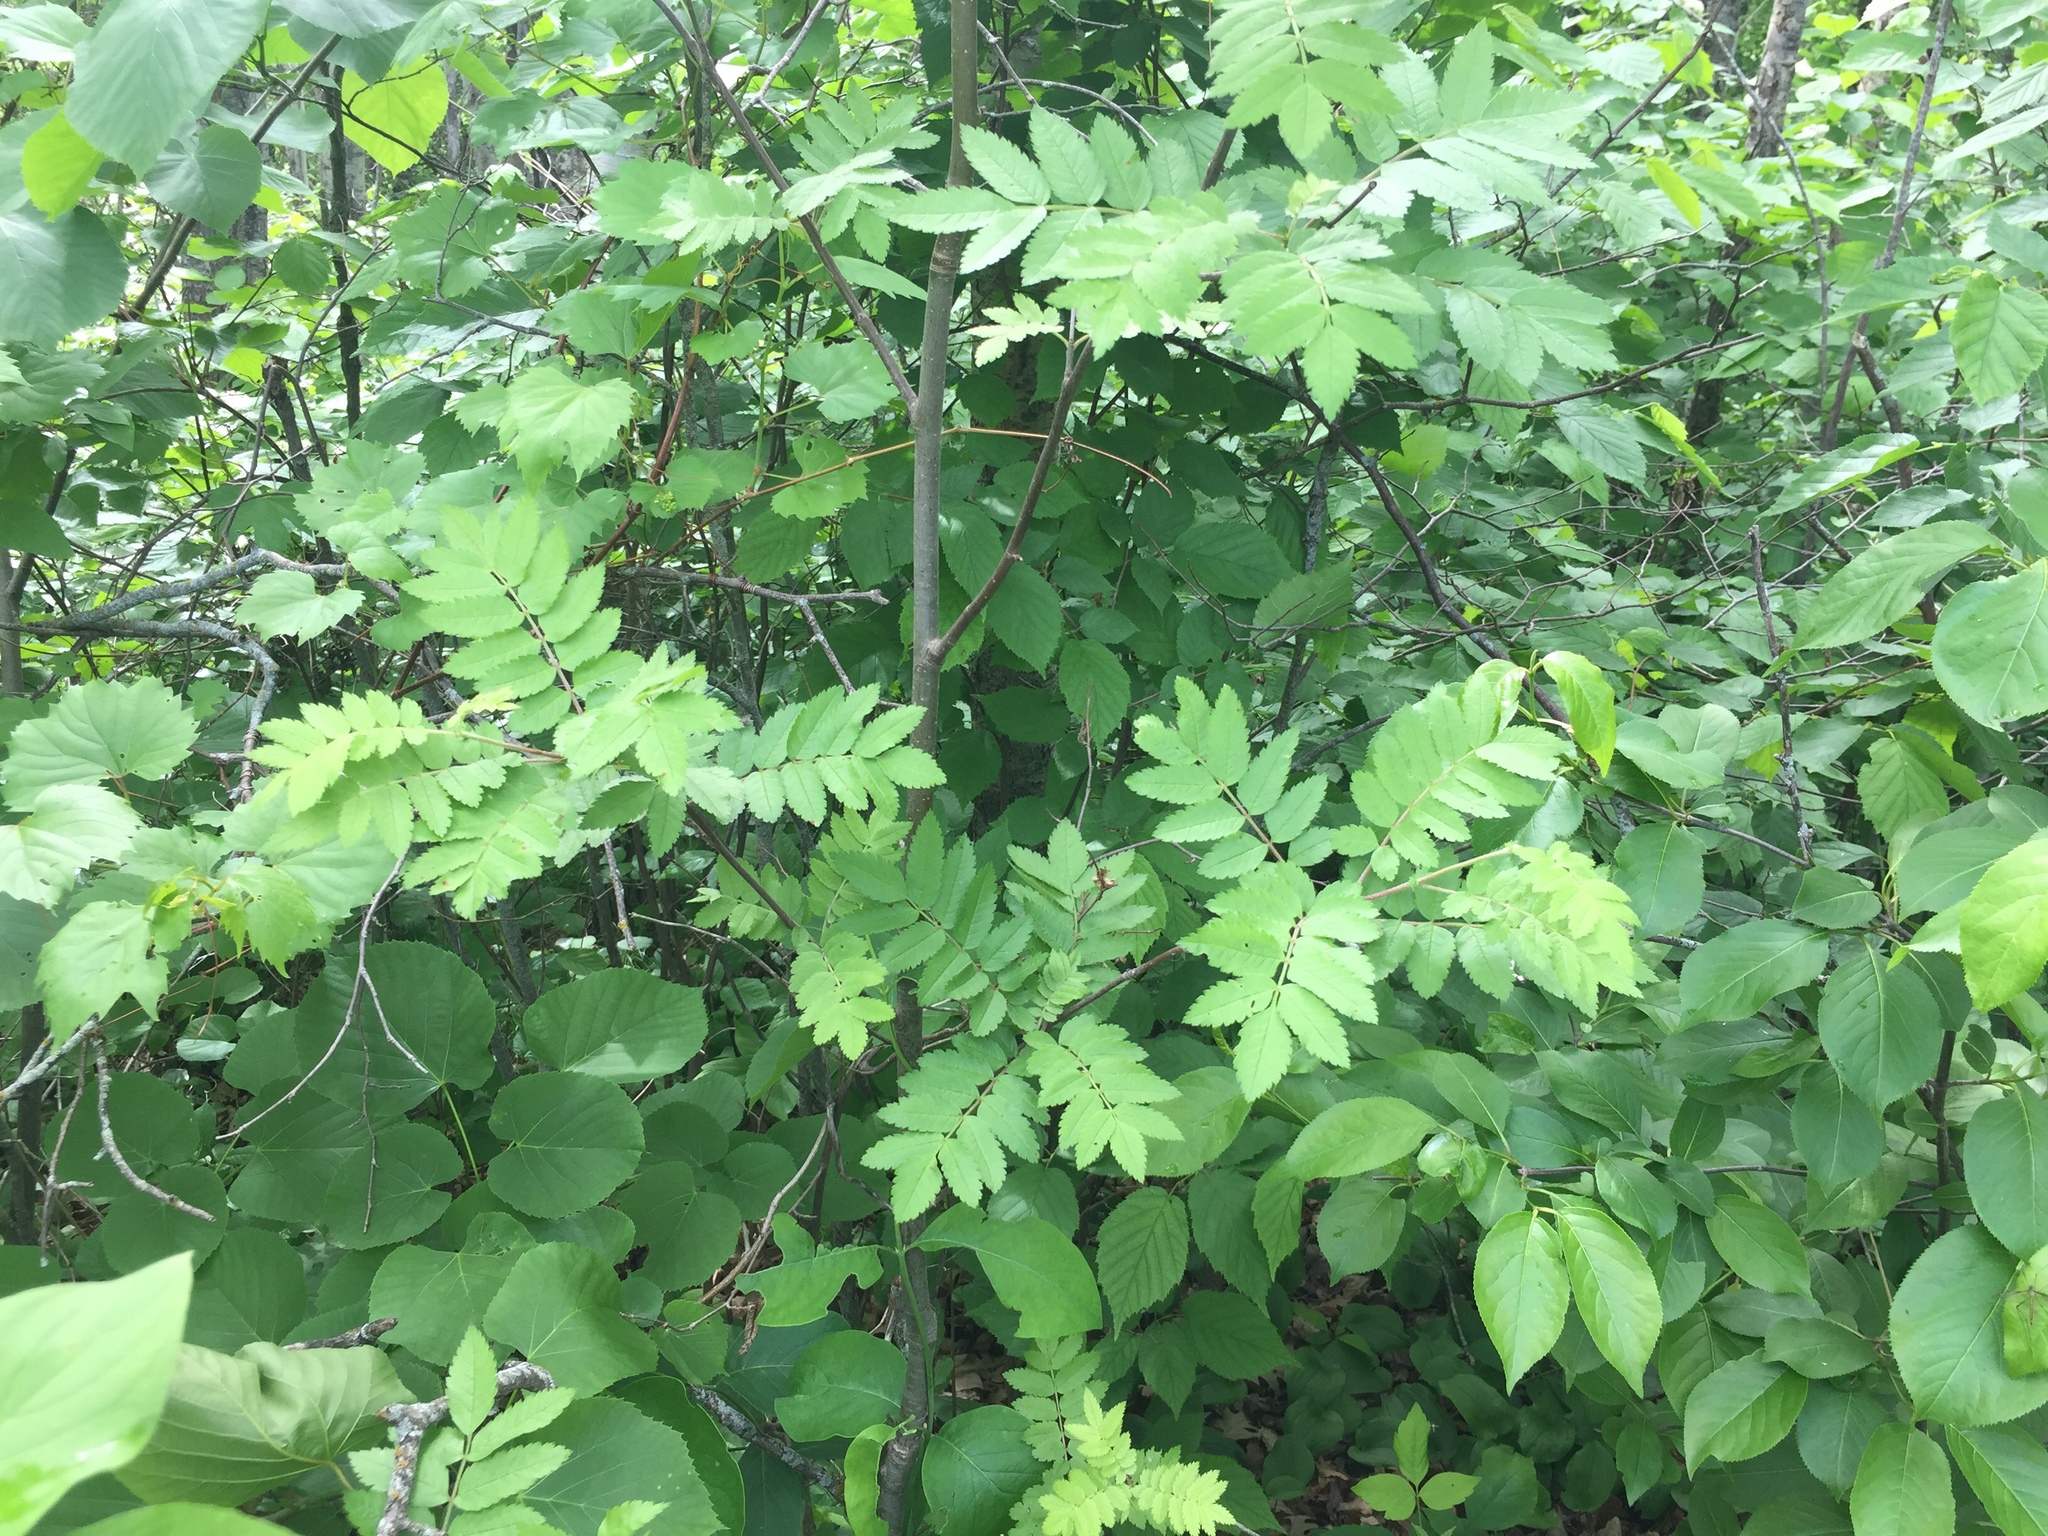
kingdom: Plantae
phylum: Tracheophyta
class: Magnoliopsida
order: Rosales
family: Rosaceae
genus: Sorbus
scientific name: Sorbus americana
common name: American mountain-ash
